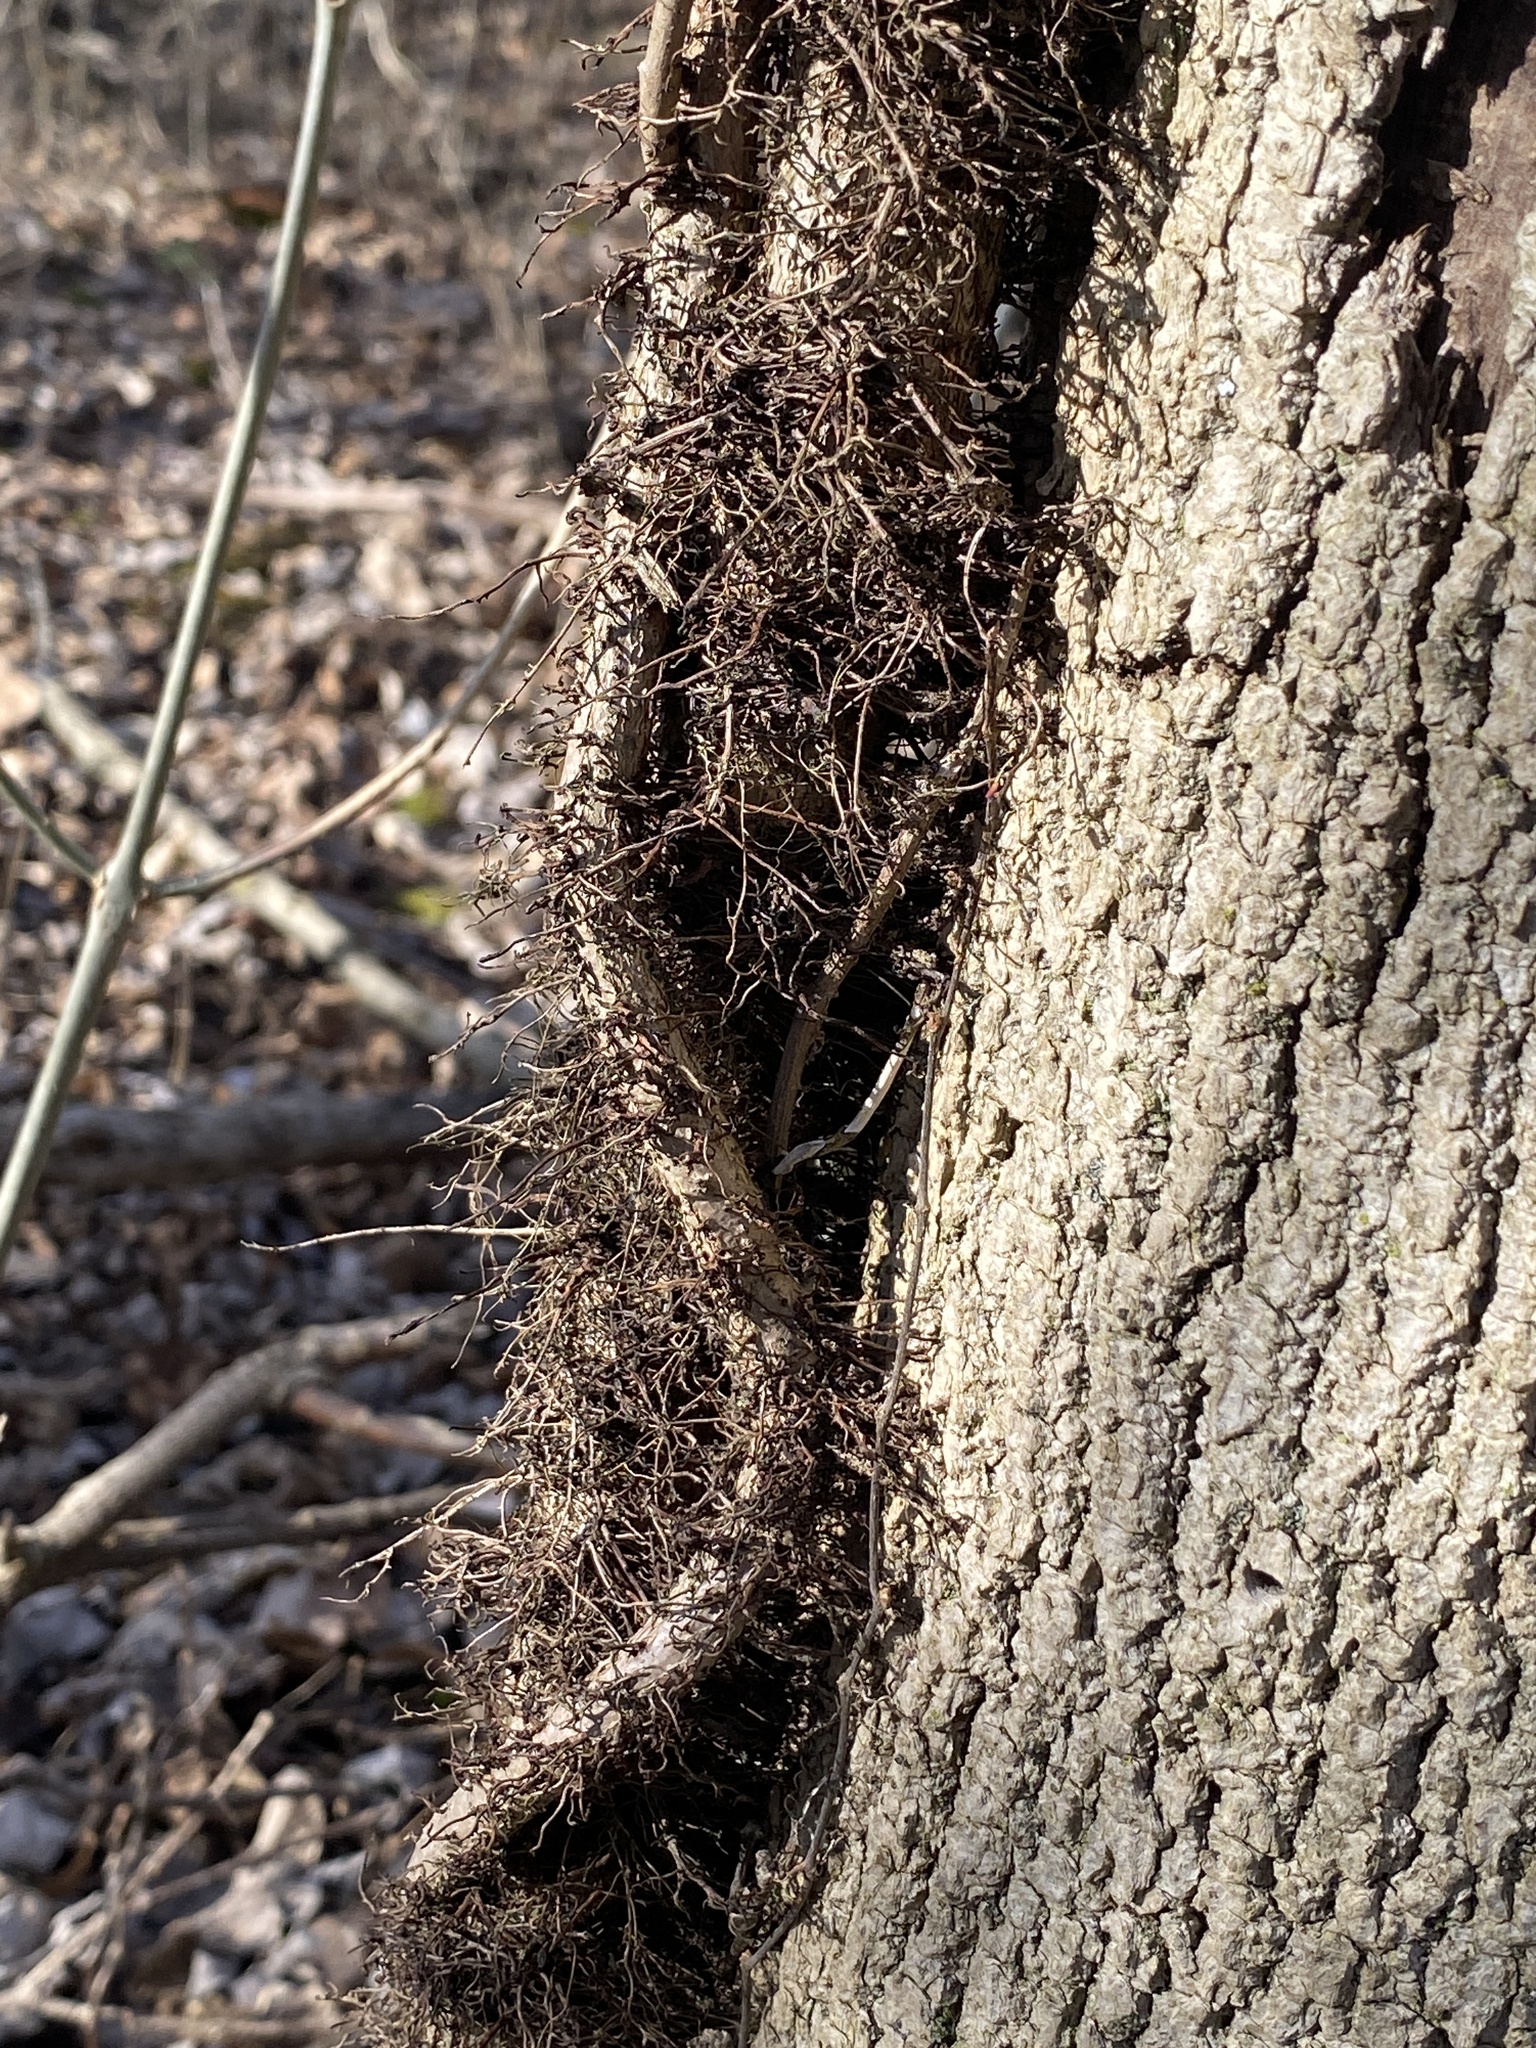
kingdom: Plantae
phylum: Tracheophyta
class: Magnoliopsida
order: Sapindales
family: Anacardiaceae
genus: Toxicodendron
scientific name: Toxicodendron radicans
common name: Poison ivy
